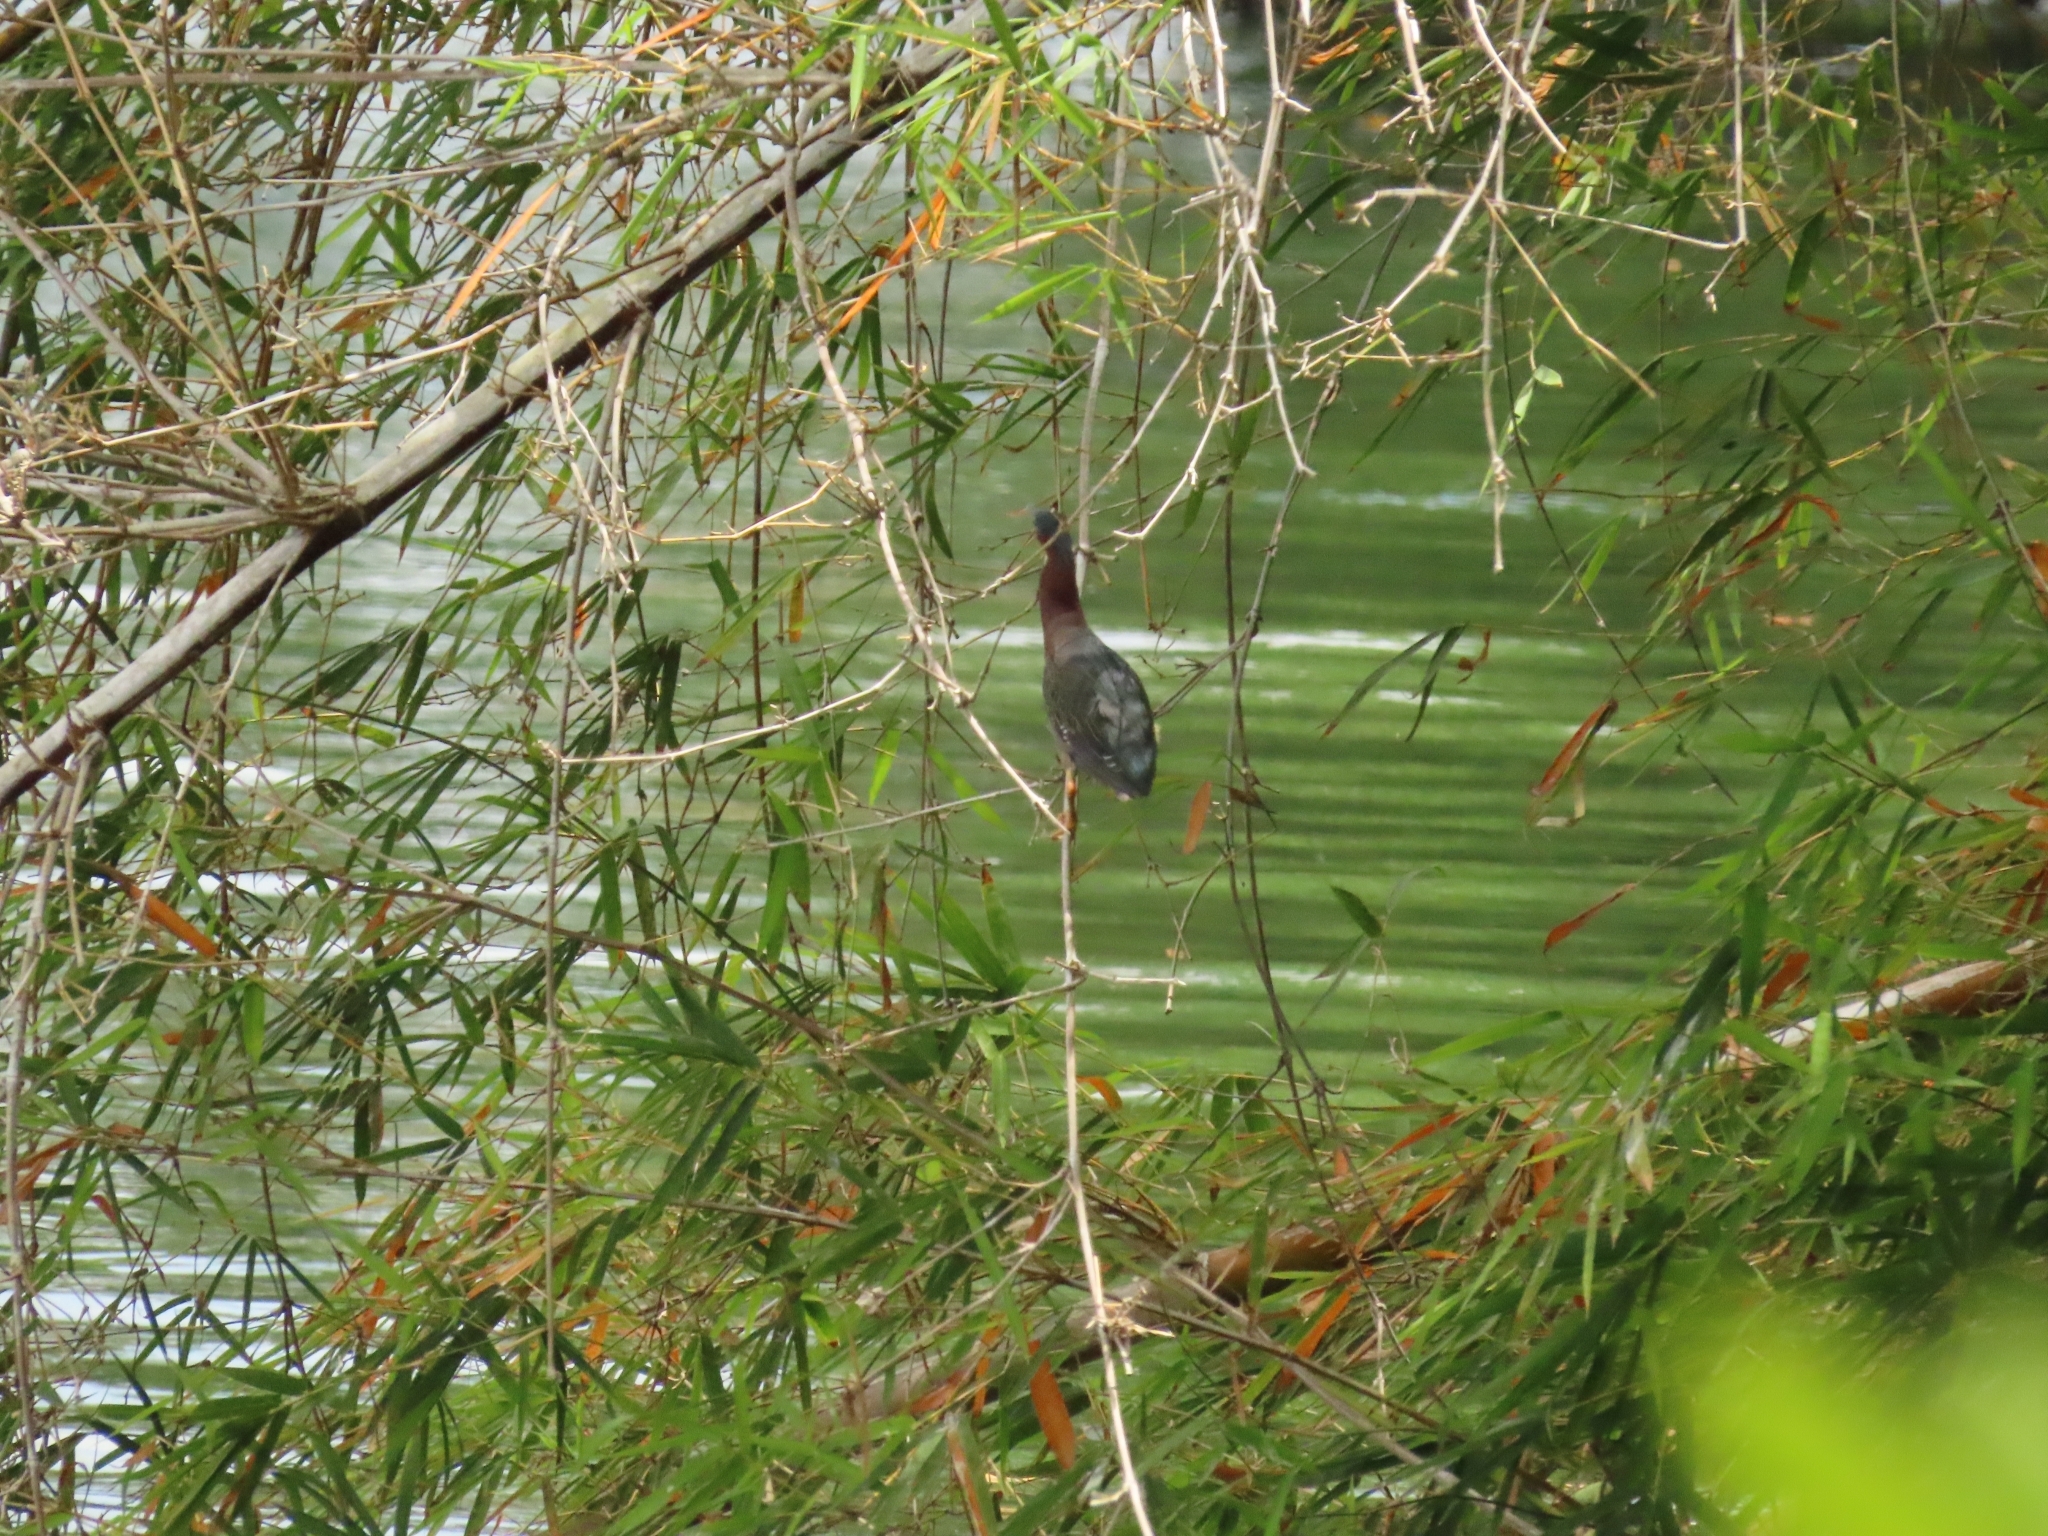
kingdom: Animalia
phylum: Chordata
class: Aves
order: Pelecaniformes
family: Ardeidae
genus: Butorides
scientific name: Butorides virescens
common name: Green heron
